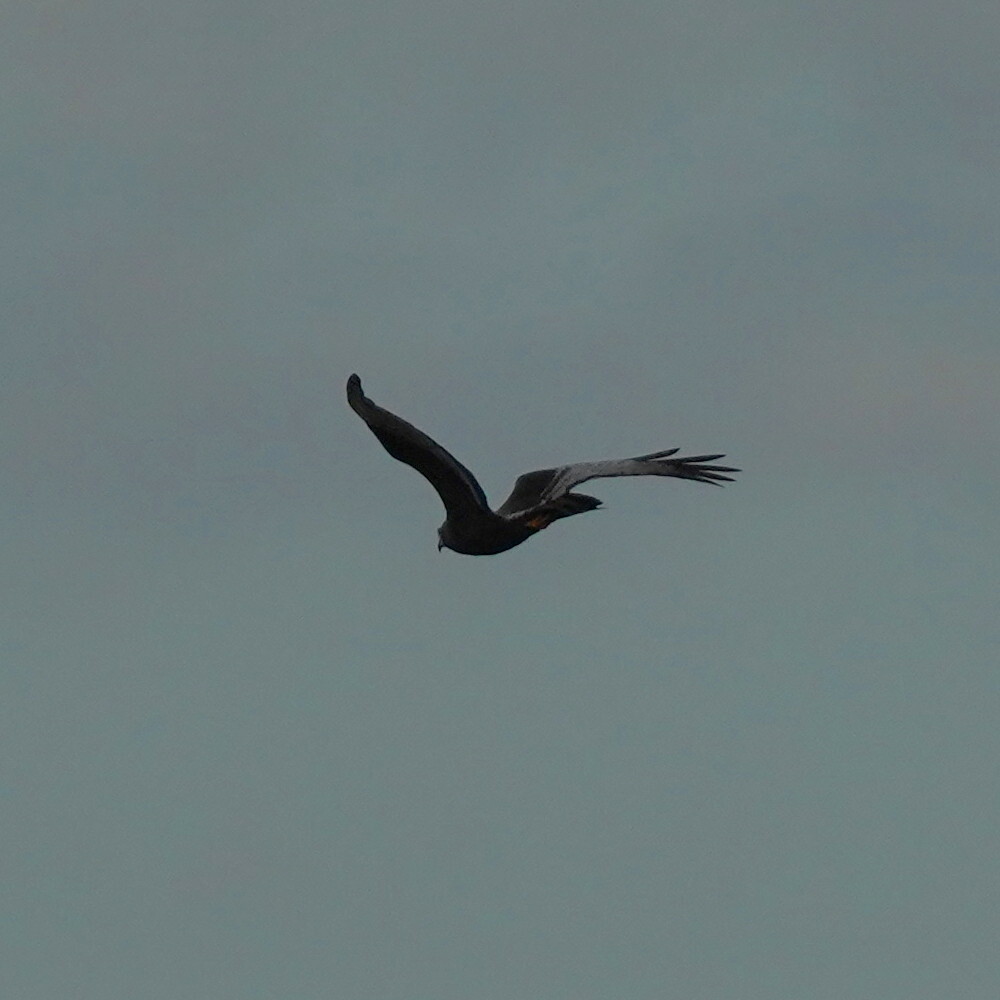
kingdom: Animalia
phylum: Chordata
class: Aves
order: Accipitriformes
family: Accipitridae
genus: Circus
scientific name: Circus buffoni
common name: Long-winged harrier
